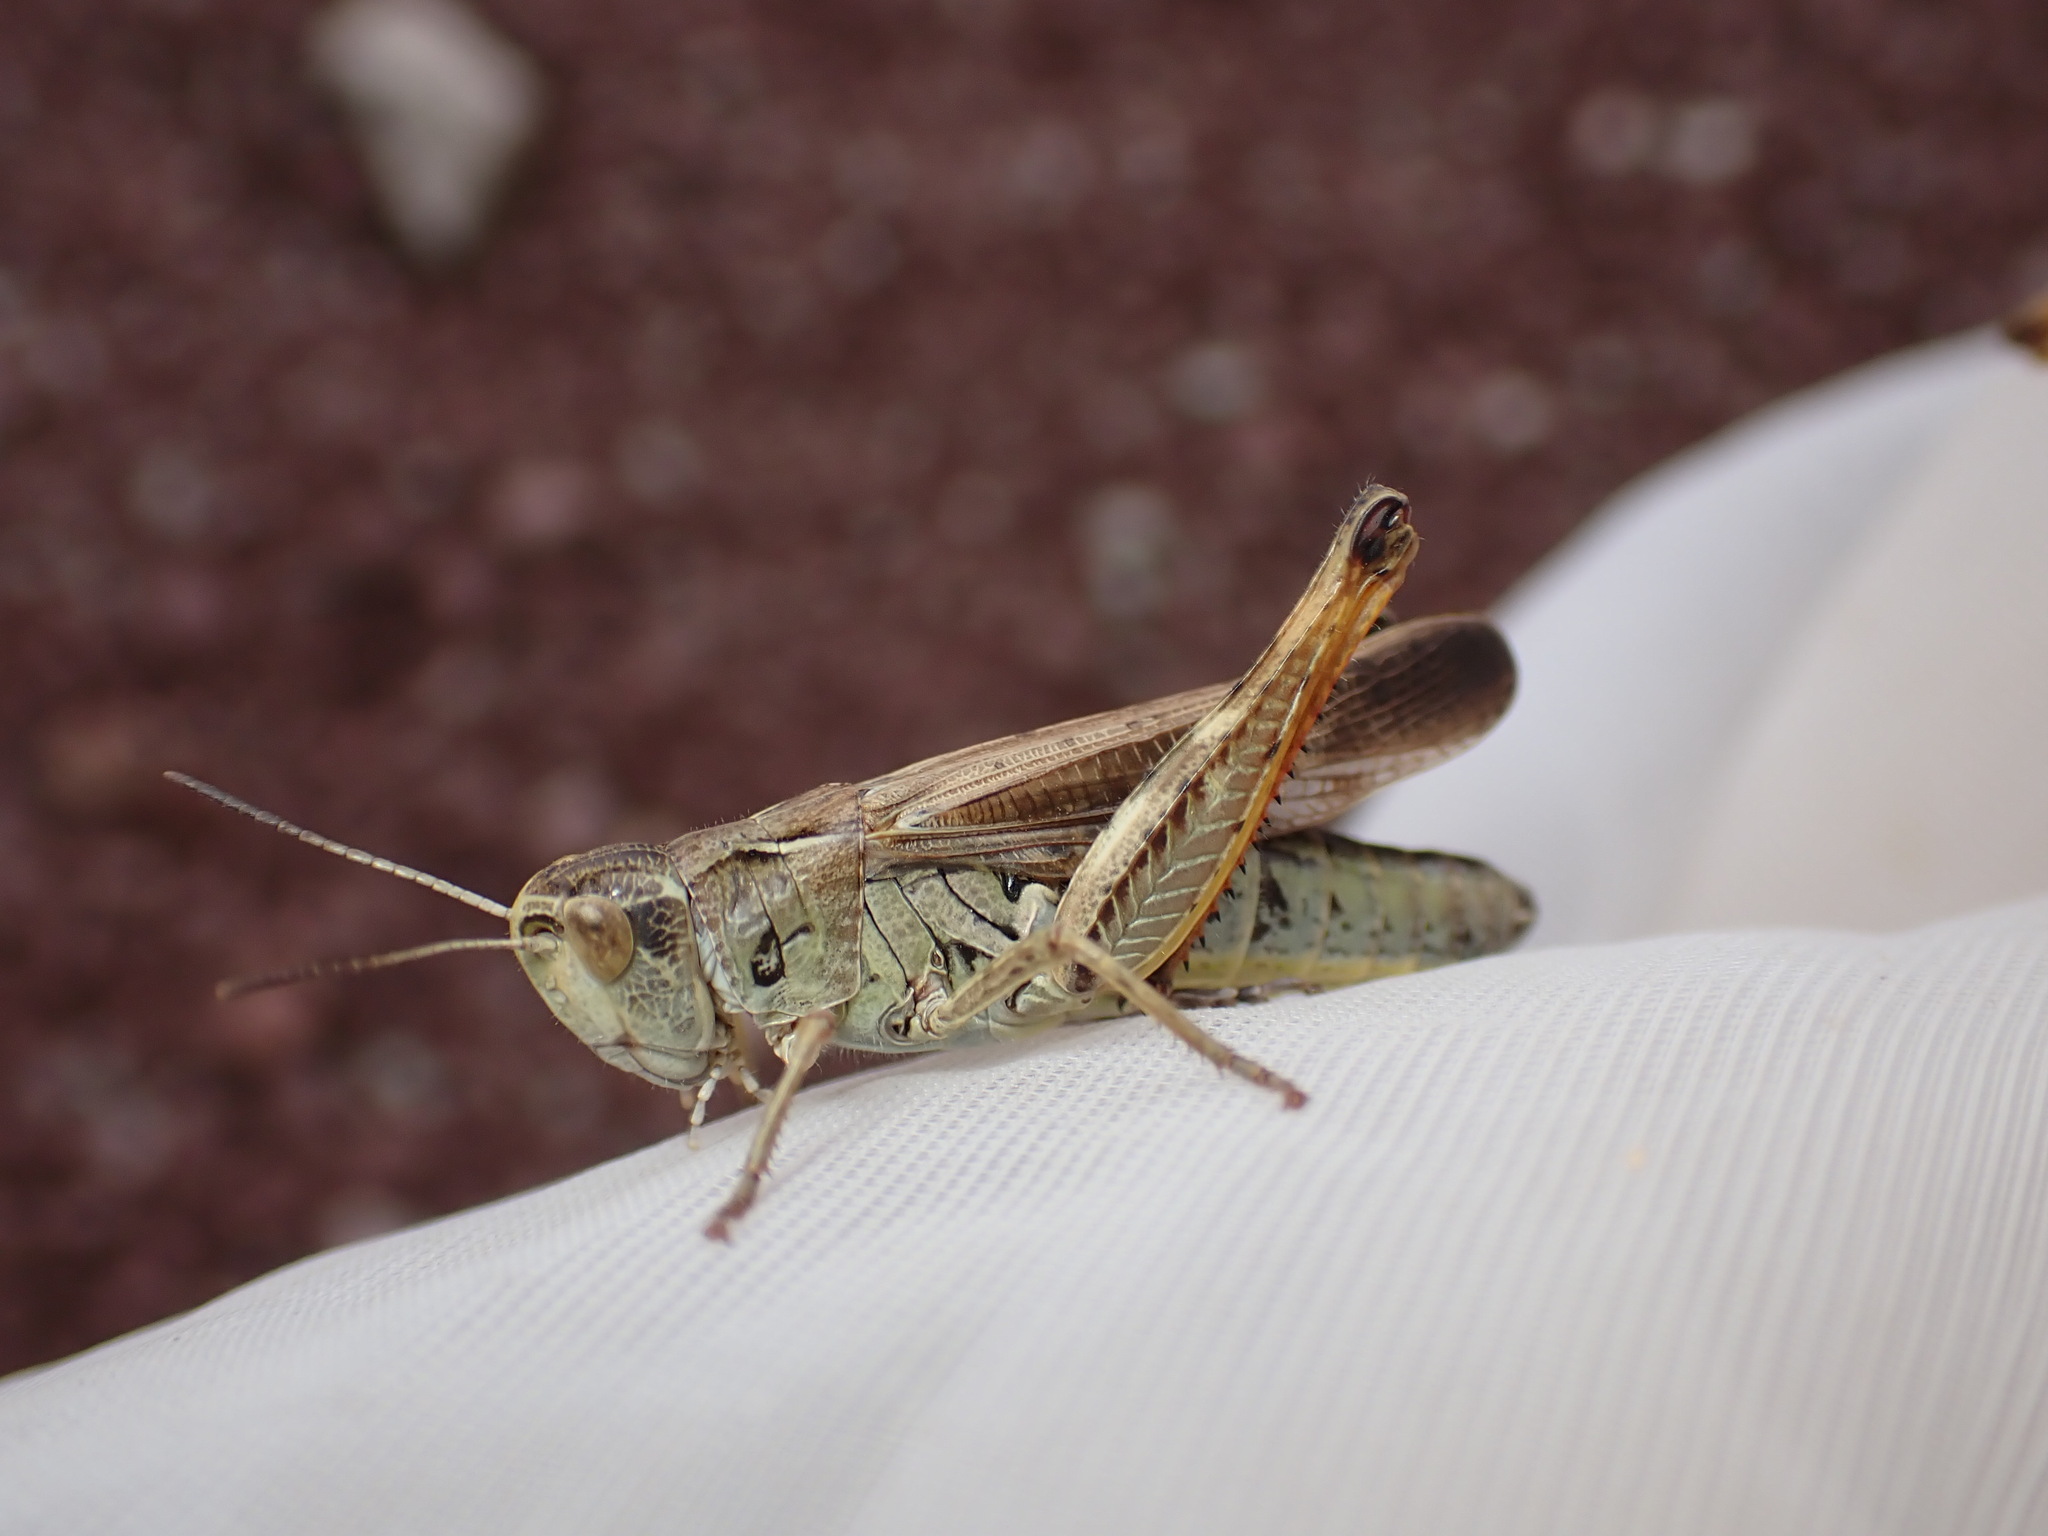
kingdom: Animalia
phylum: Arthropoda
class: Insecta
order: Orthoptera
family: Acrididae
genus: Stauroderus
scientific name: Stauroderus scalaris
